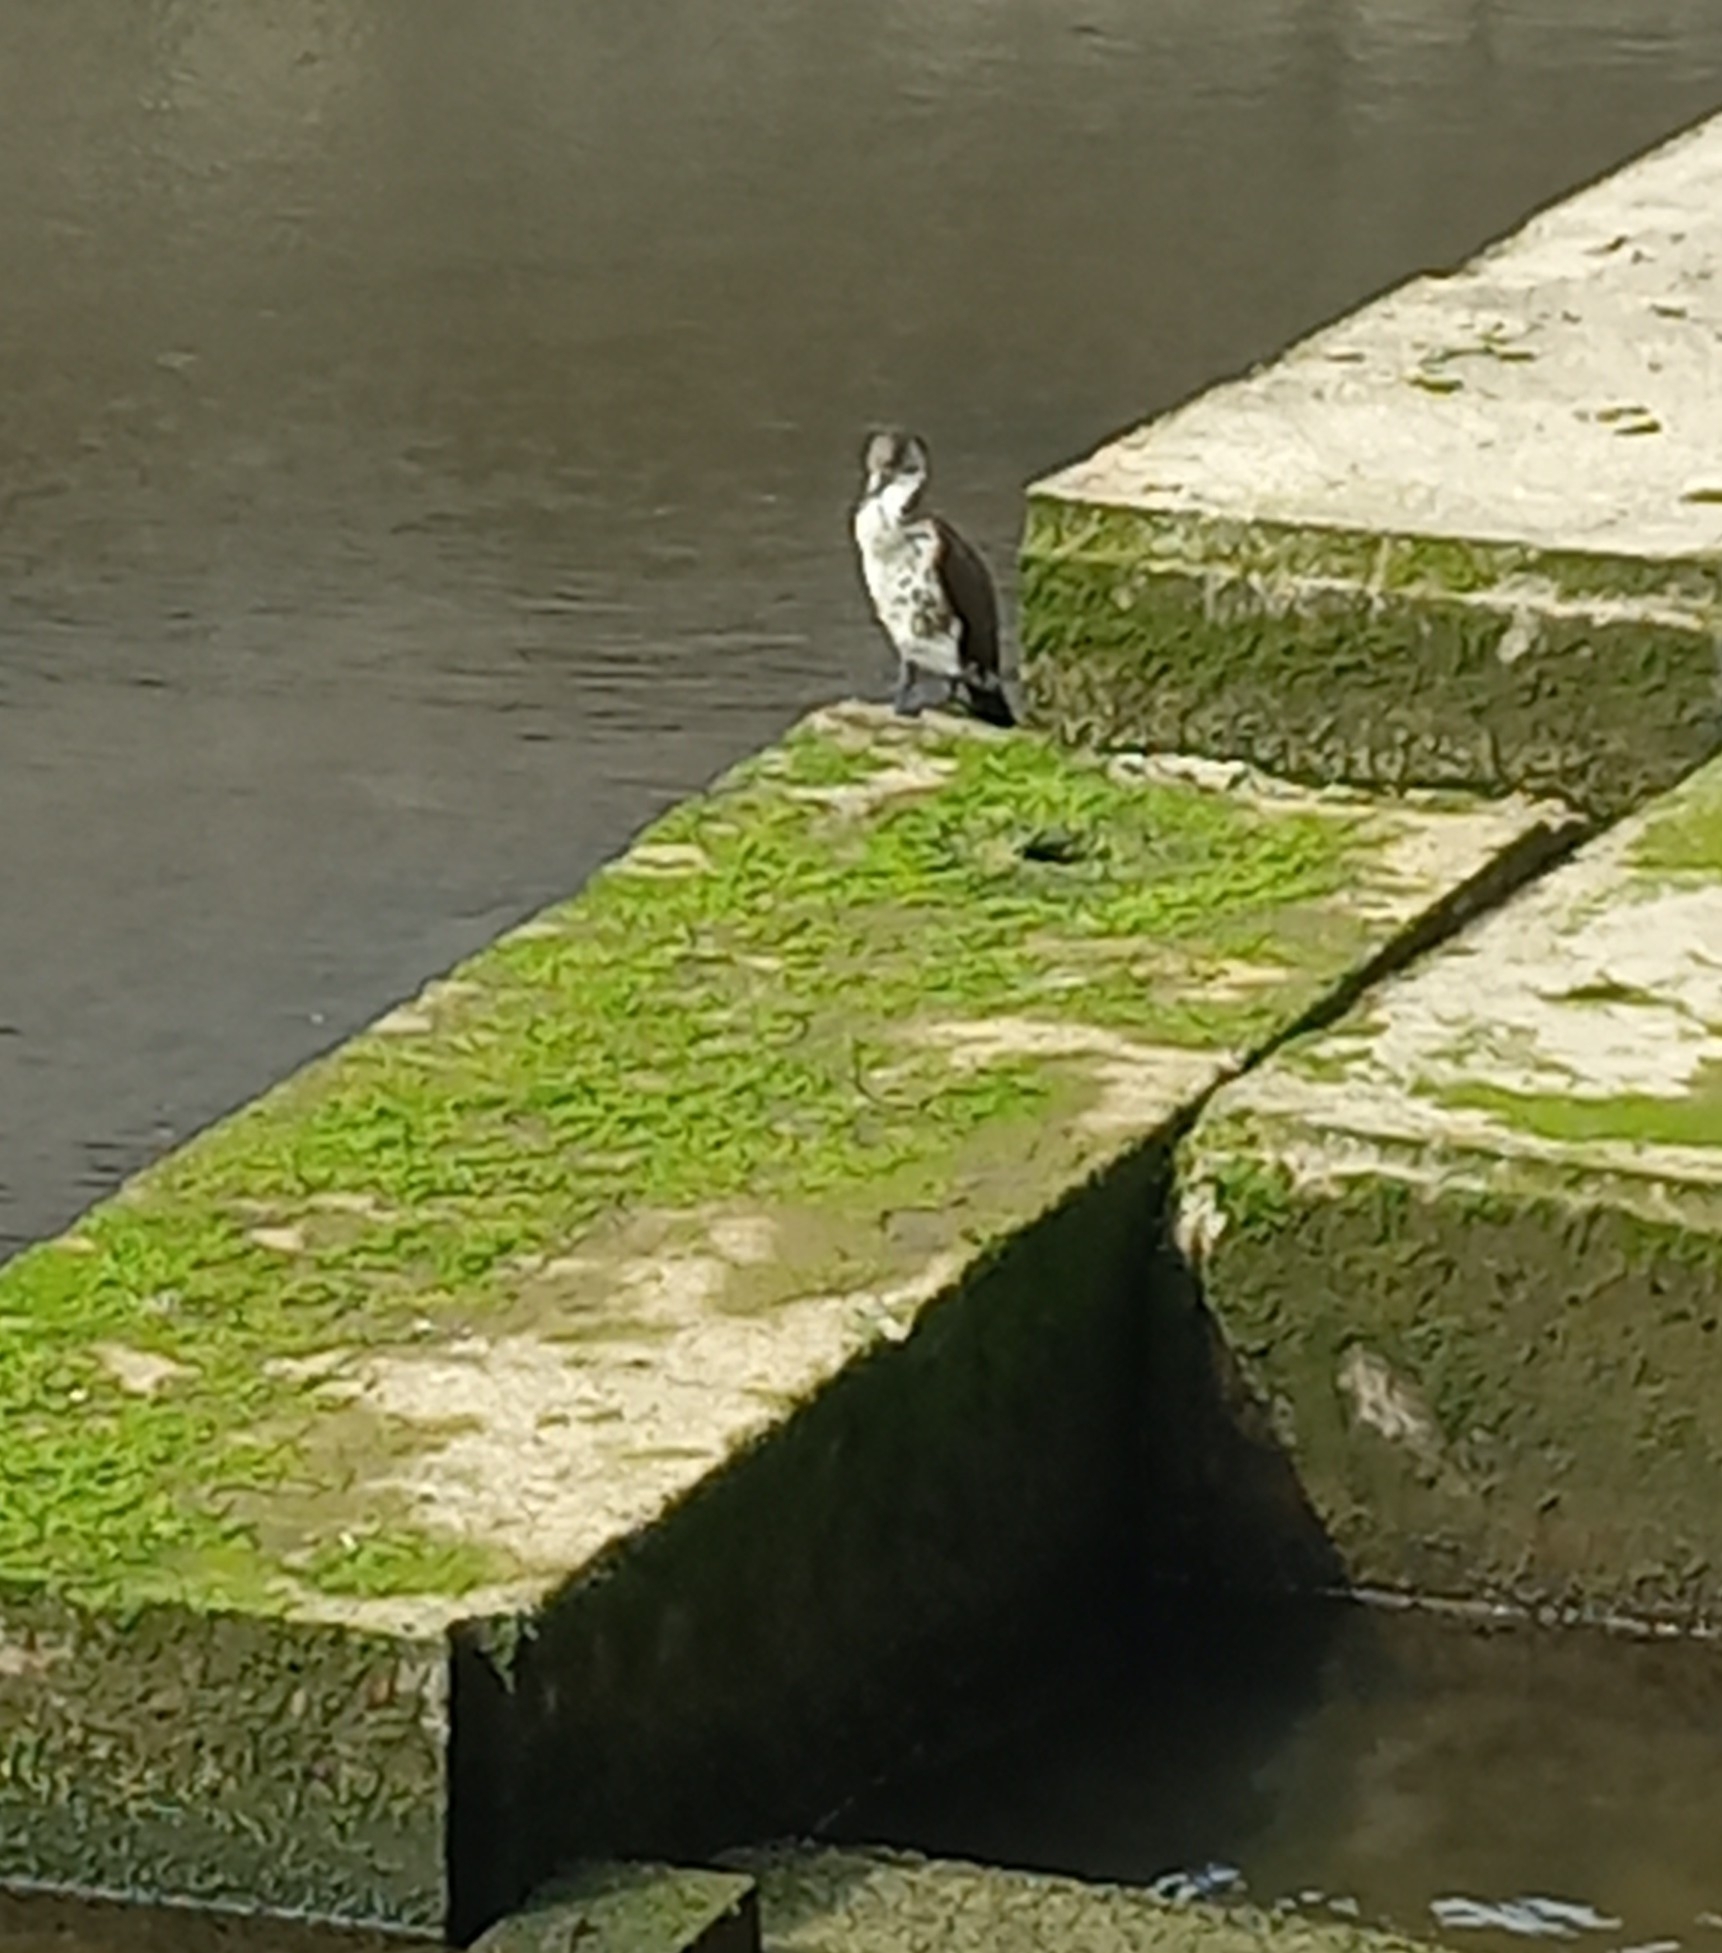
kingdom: Animalia
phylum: Chordata
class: Aves
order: Suliformes
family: Phalacrocoracidae
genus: Phalacrocorax
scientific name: Phalacrocorax varius
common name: Pied cormorant
